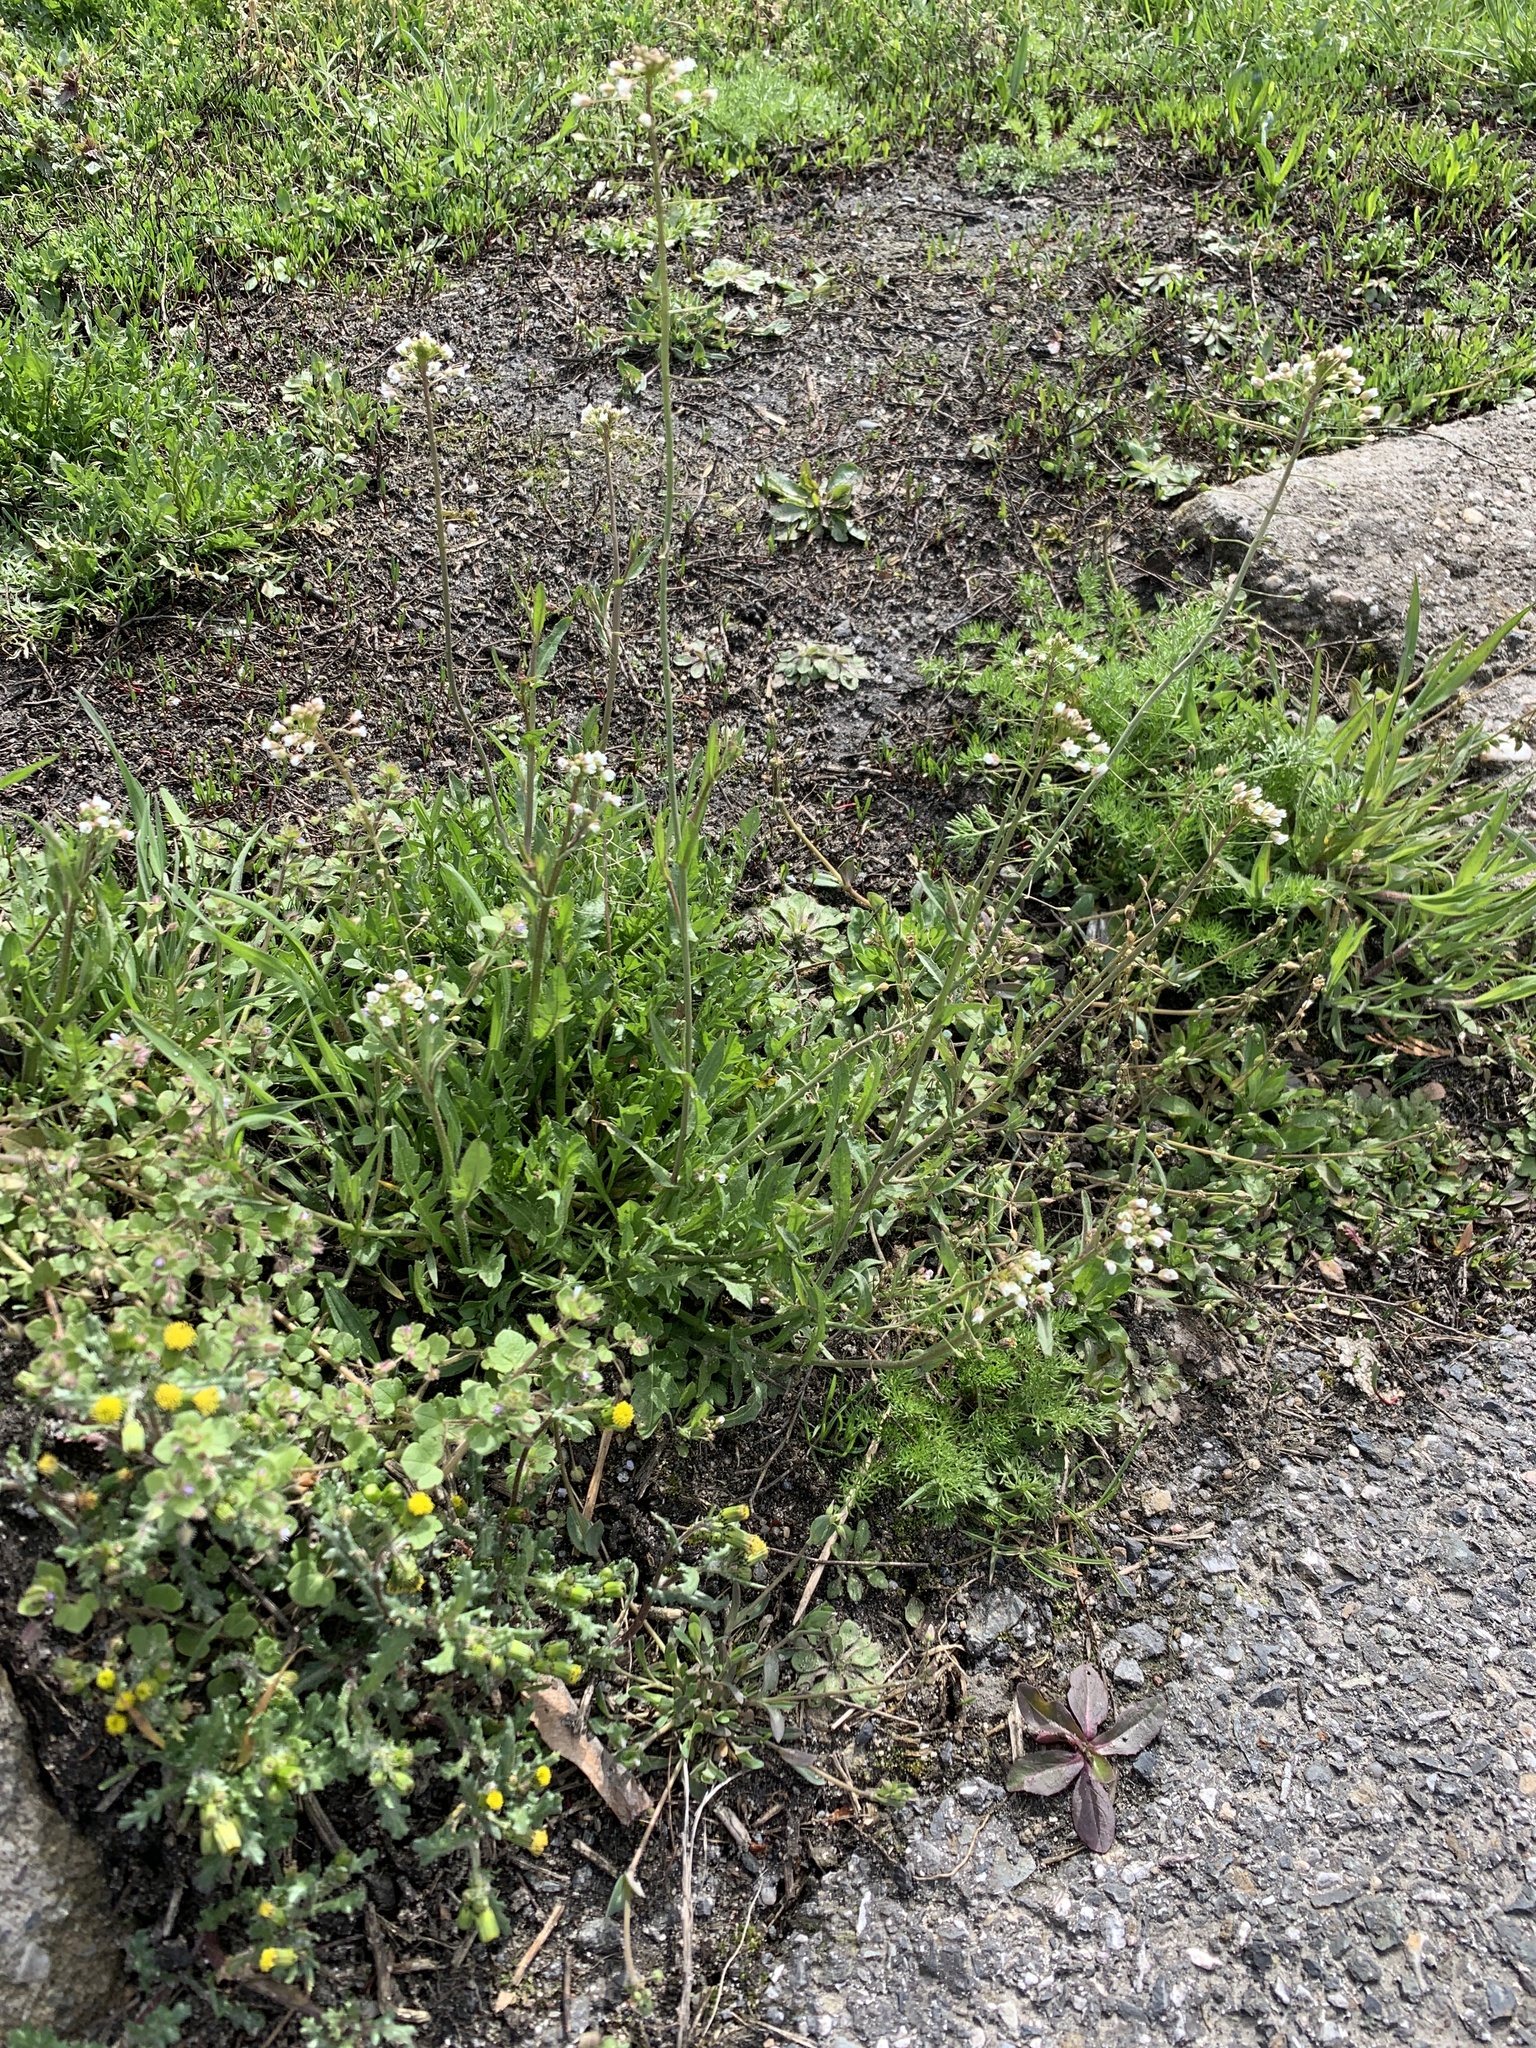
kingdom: Plantae
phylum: Tracheophyta
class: Magnoliopsida
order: Brassicales
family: Brassicaceae
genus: Capsella
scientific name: Capsella bursa-pastoris
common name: Shepherd's purse
